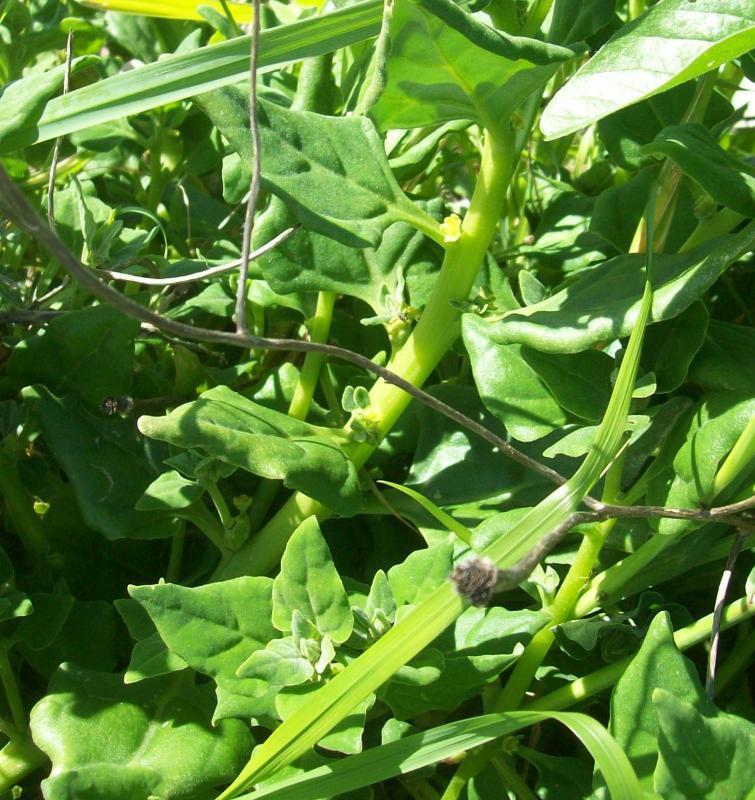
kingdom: Plantae
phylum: Tracheophyta
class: Magnoliopsida
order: Caryophyllales
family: Aizoaceae
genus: Tetragonia
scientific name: Tetragonia tetragonoides
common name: New zealand-spinach
